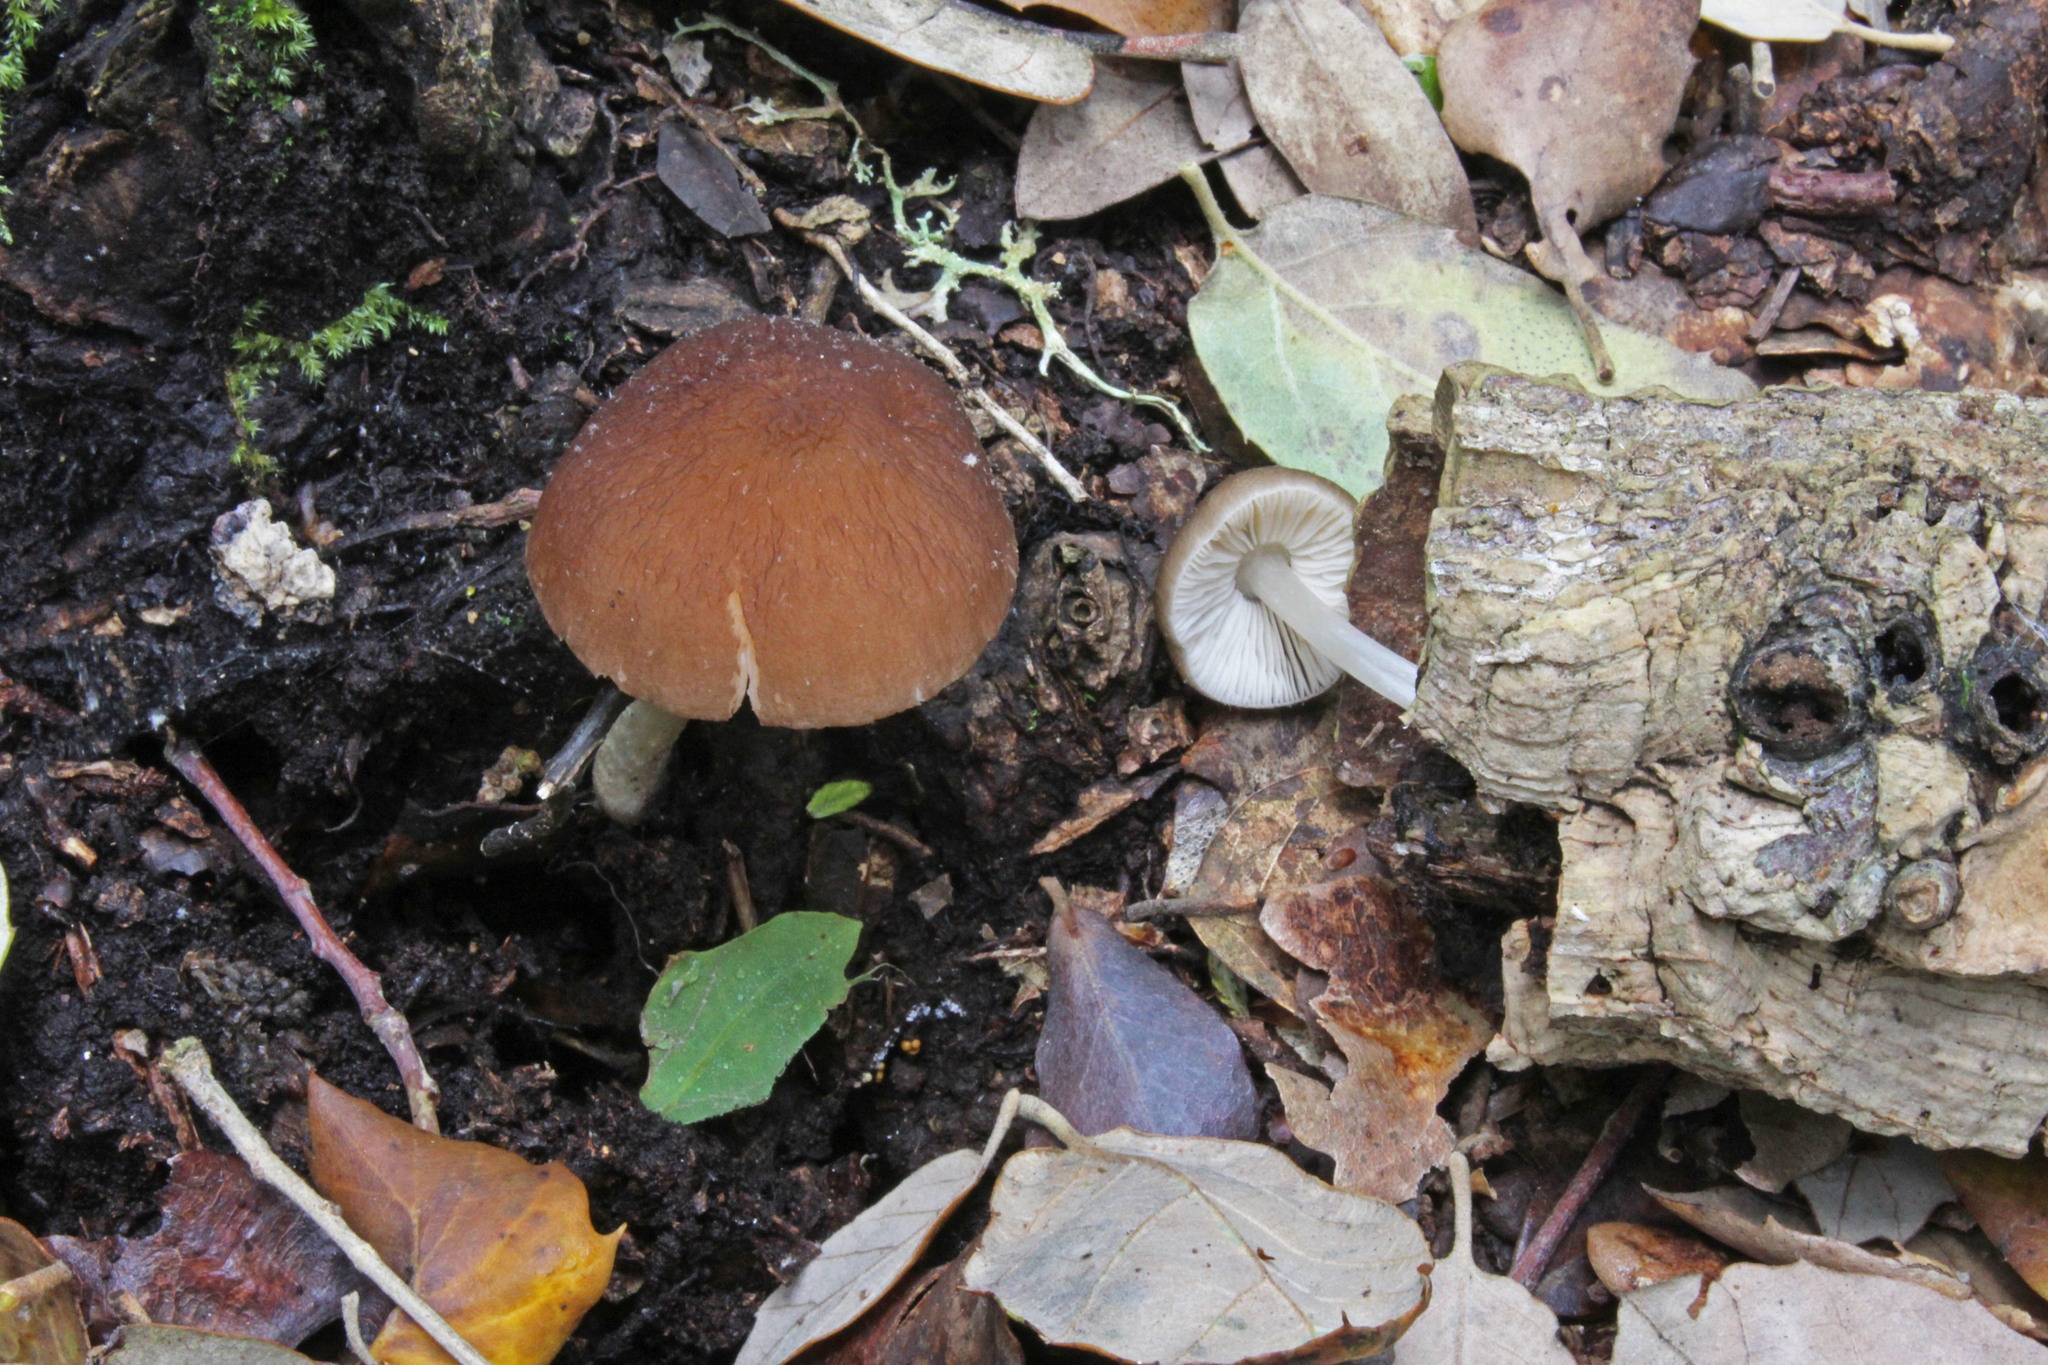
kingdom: Fungi
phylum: Basidiomycota
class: Agaricomycetes
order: Agaricales
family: Pluteaceae
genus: Pluteus
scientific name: Pluteus phlebophorus
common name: Wrinkled shield
